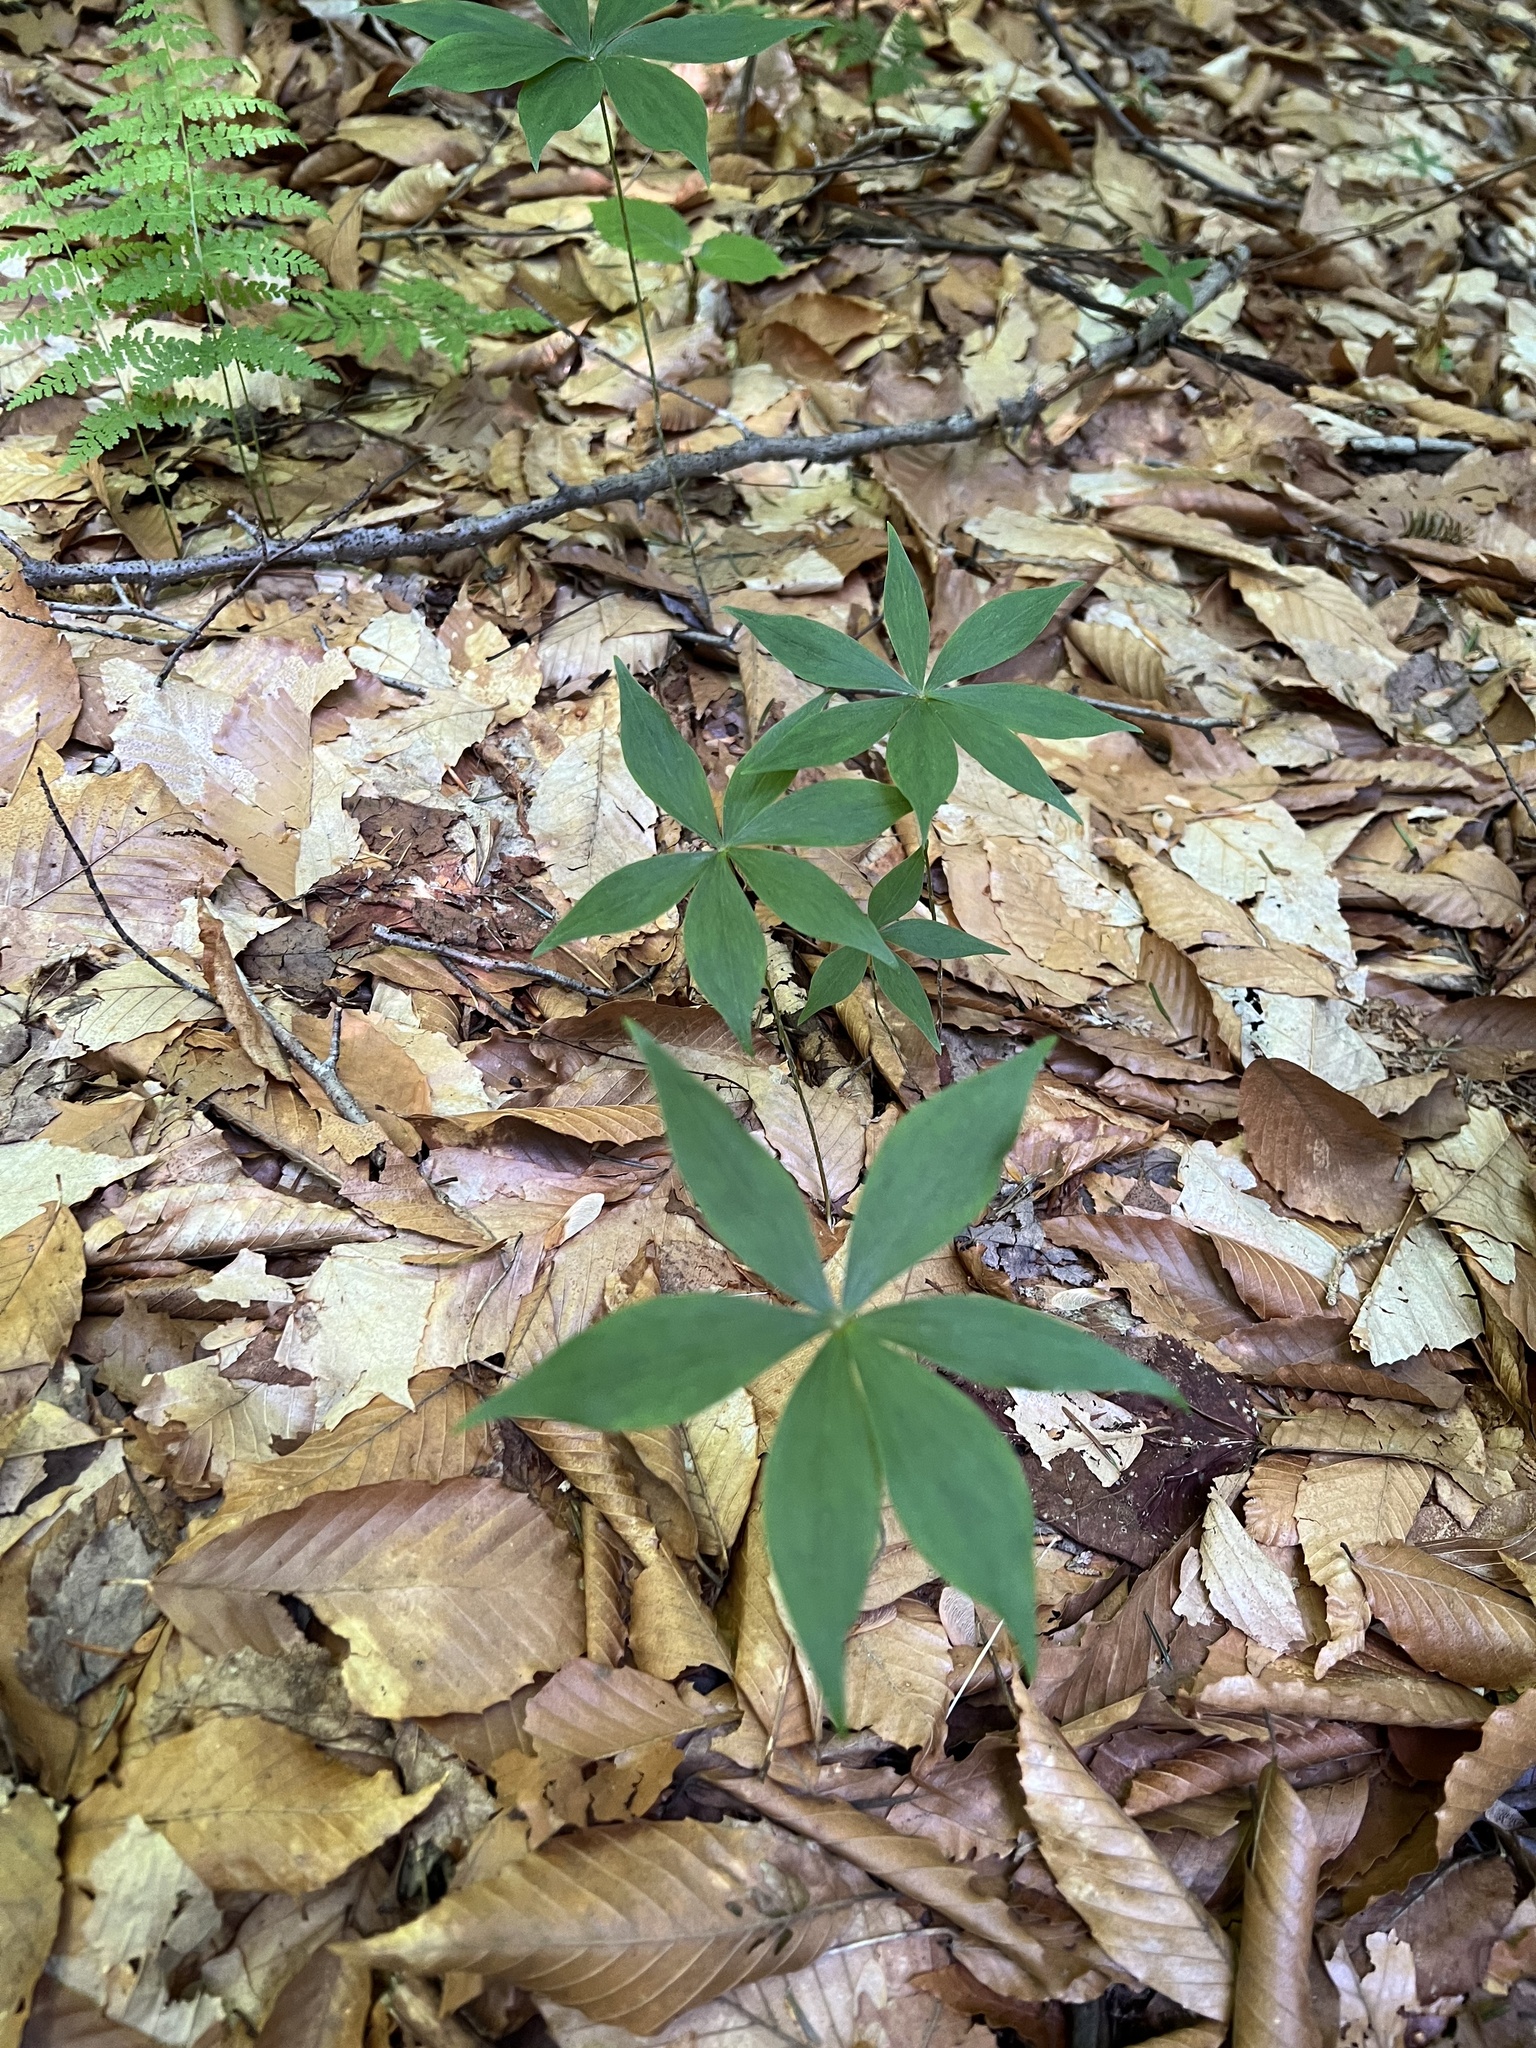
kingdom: Plantae
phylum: Tracheophyta
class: Magnoliopsida
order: Ericales
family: Primulaceae
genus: Lysimachia
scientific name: Lysimachia borealis
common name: American starflower
